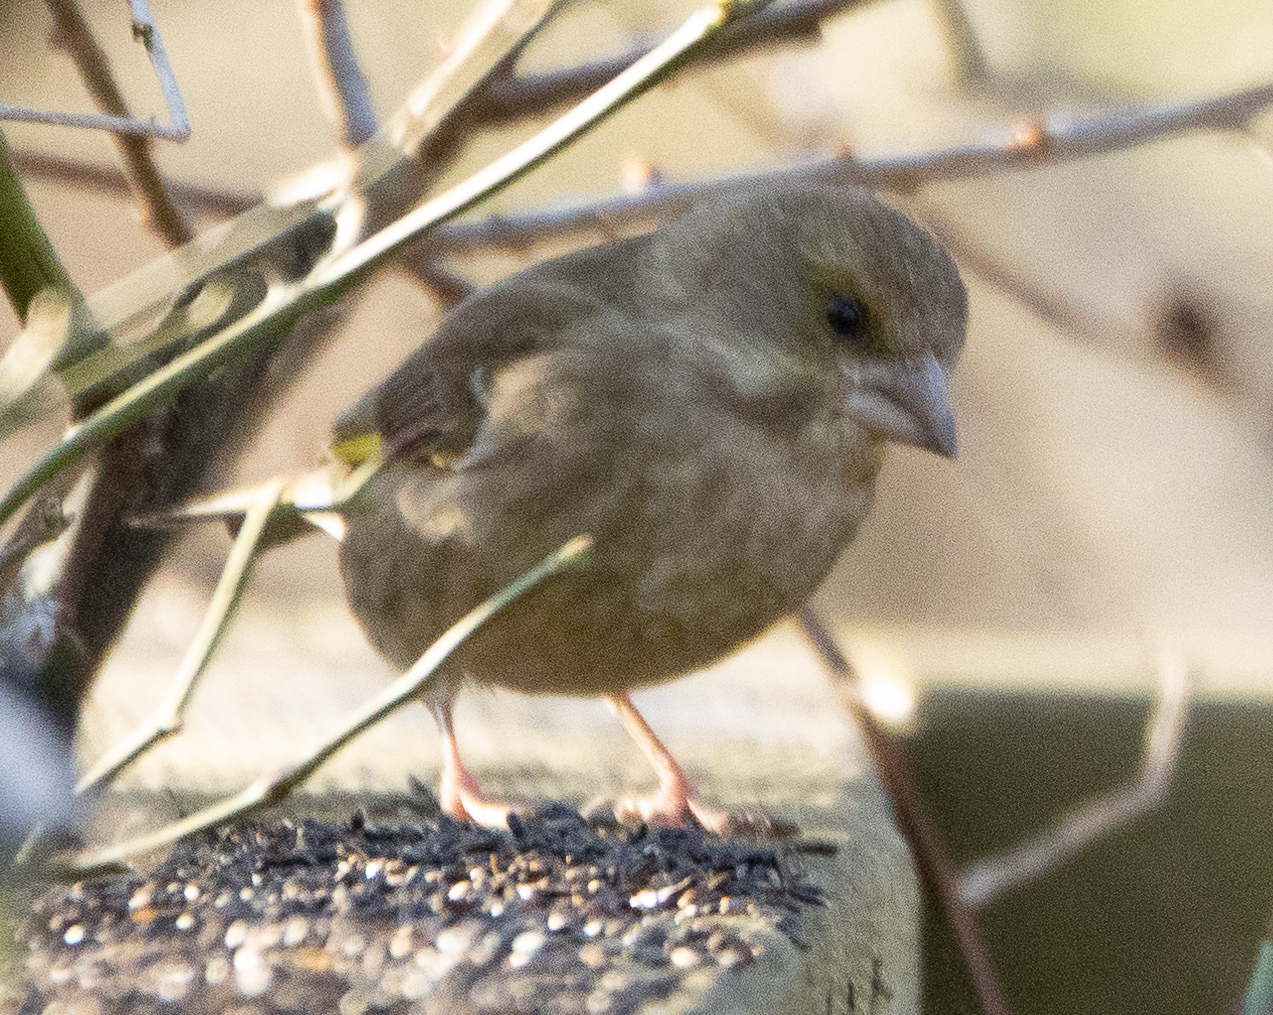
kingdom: Plantae
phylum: Tracheophyta
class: Liliopsida
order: Poales
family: Poaceae
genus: Chloris
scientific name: Chloris chloris
